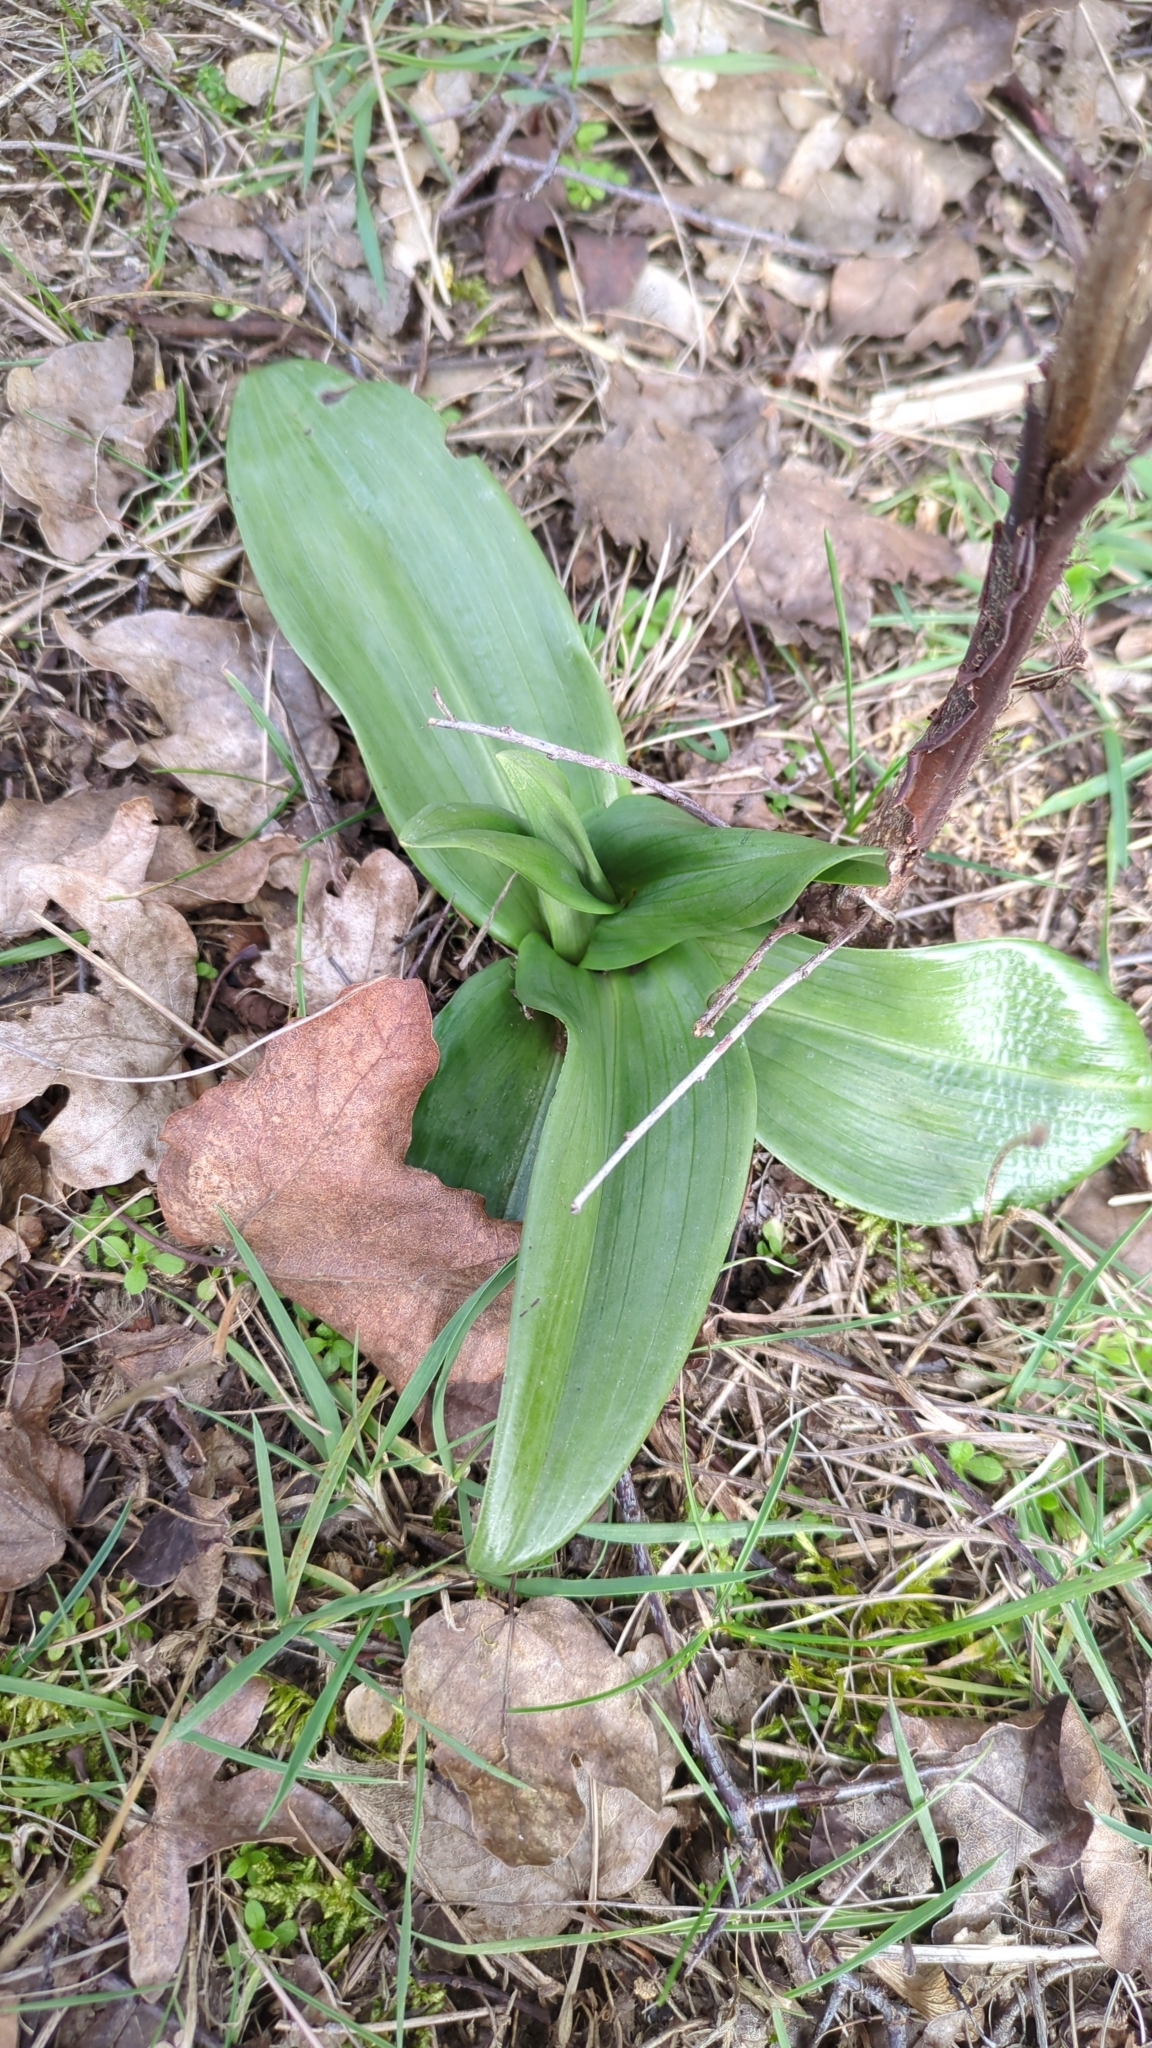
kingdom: Plantae
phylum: Tracheophyta
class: Liliopsida
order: Asparagales
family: Orchidaceae
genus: Himantoglossum
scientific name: Himantoglossum hircinum
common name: Lizard orchid
